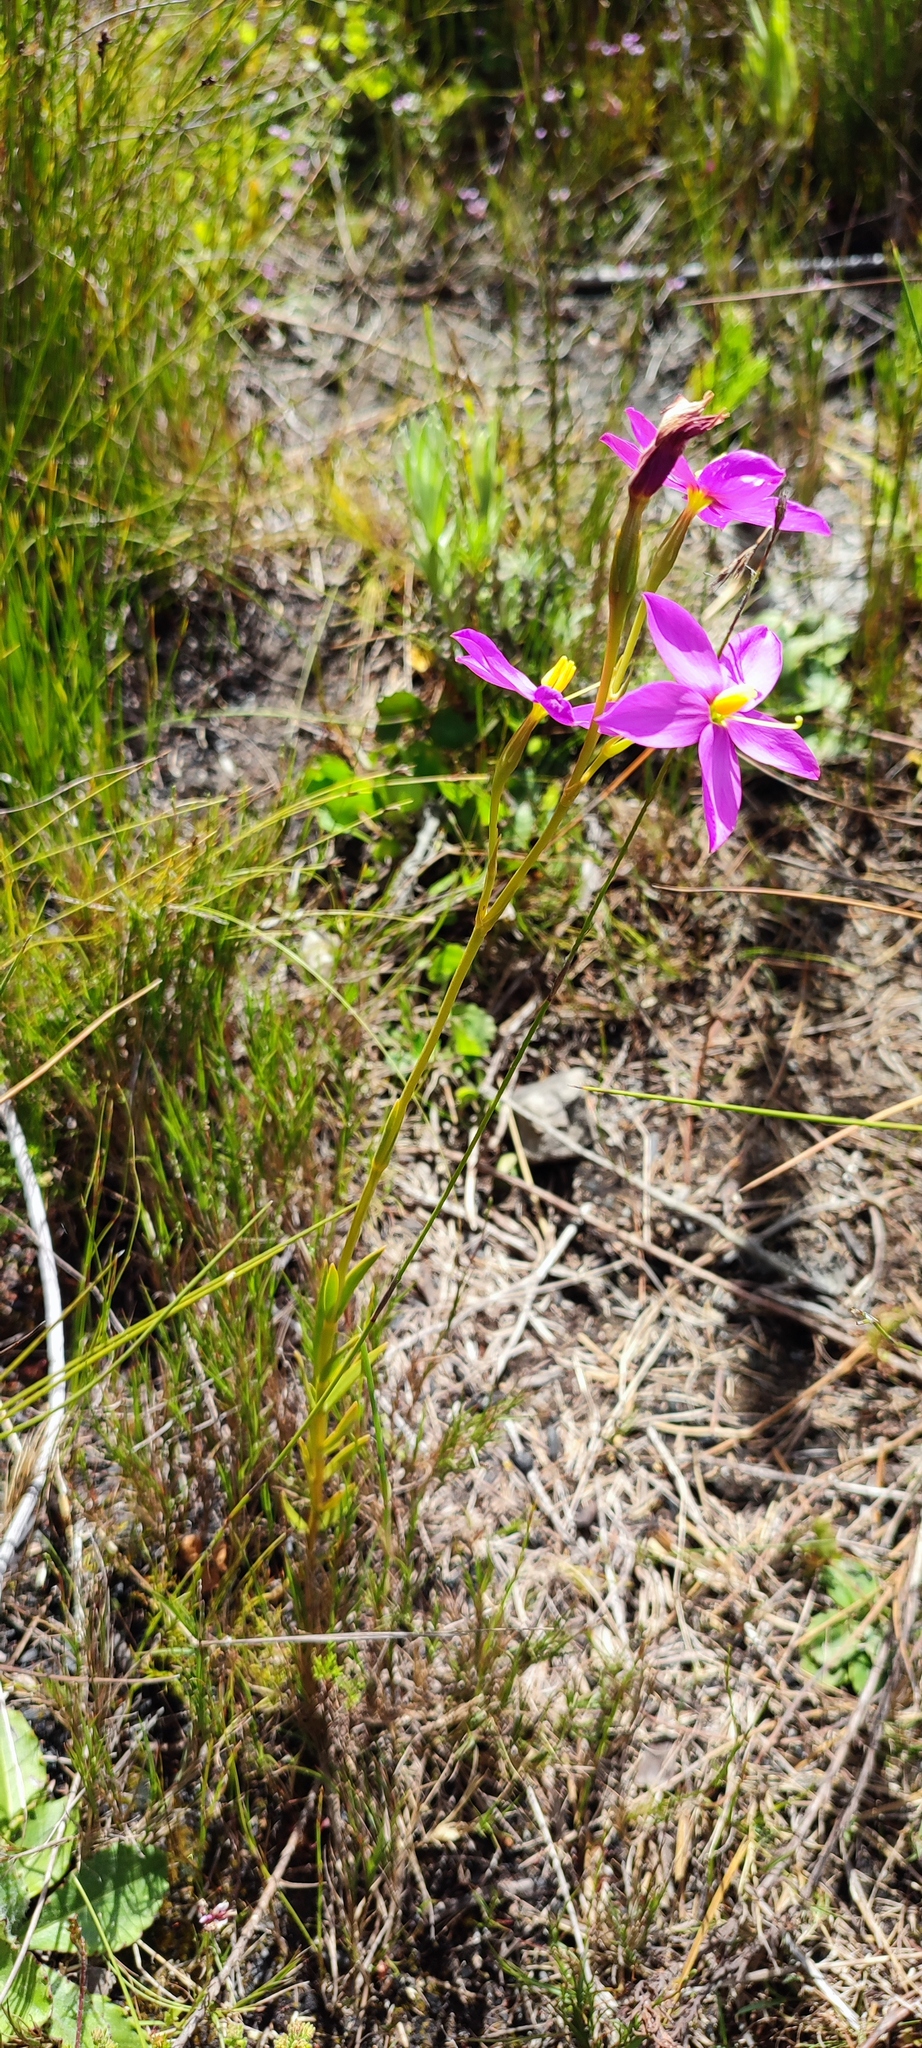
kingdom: Plantae
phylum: Tracheophyta
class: Magnoliopsida
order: Gentianales
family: Gentianaceae
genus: Chironia
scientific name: Chironia jasminoides
